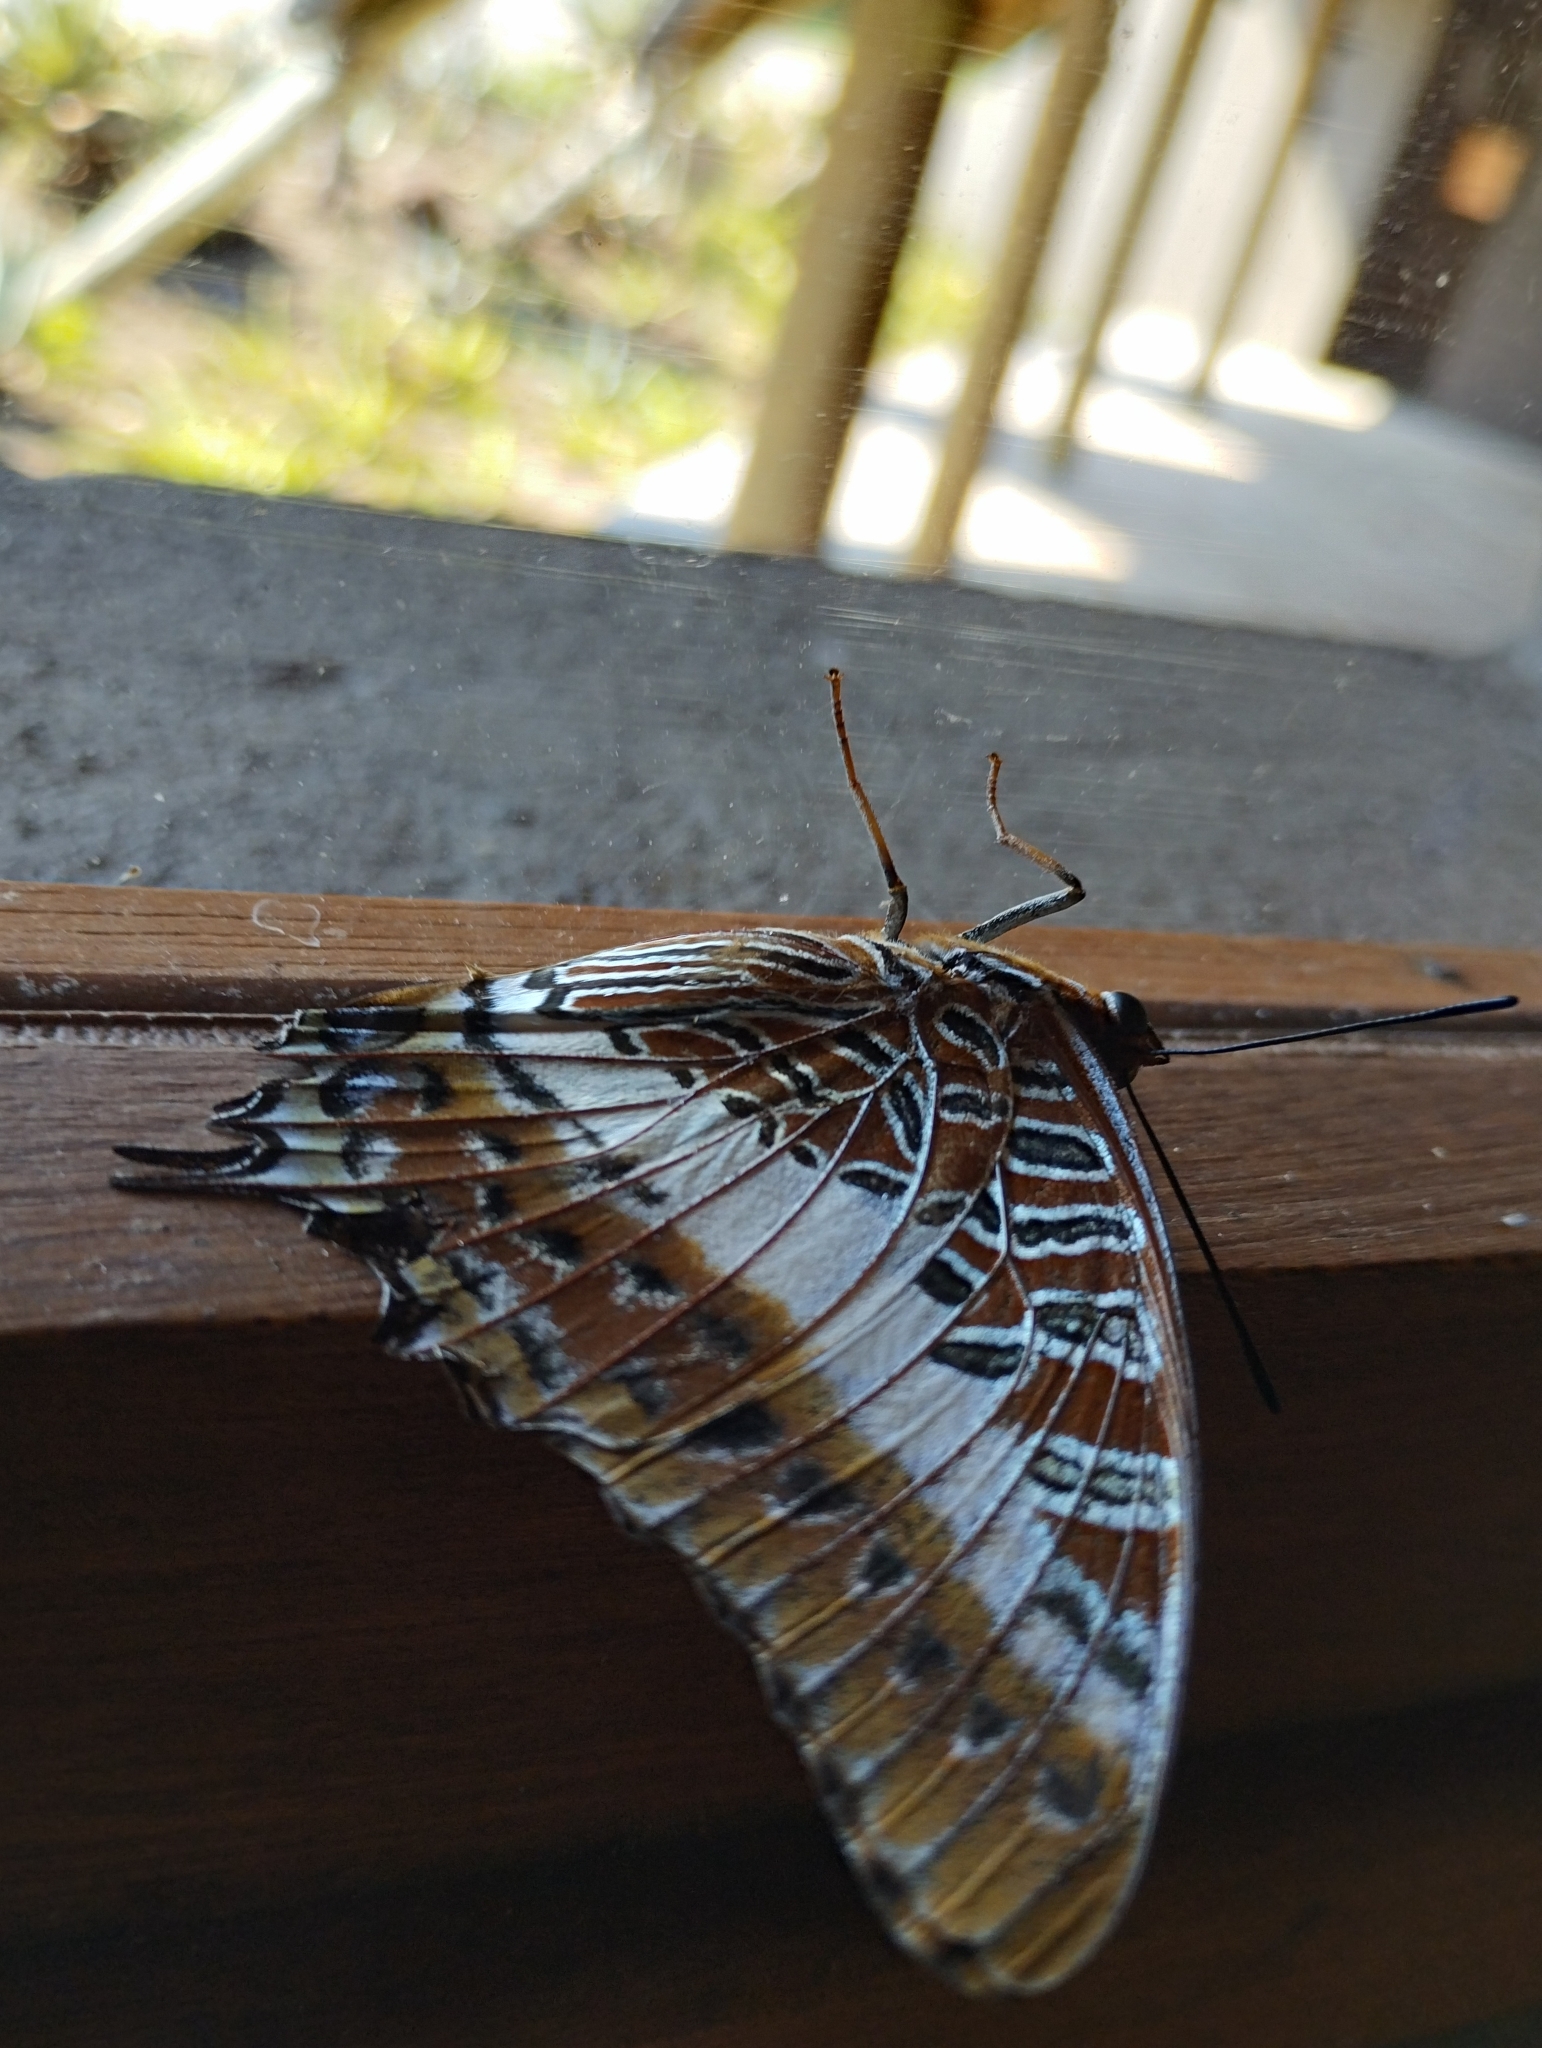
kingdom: Animalia
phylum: Arthropoda
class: Insecta
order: Lepidoptera
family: Nymphalidae
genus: Charaxes
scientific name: Charaxes brutus
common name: White-barred charaxes
